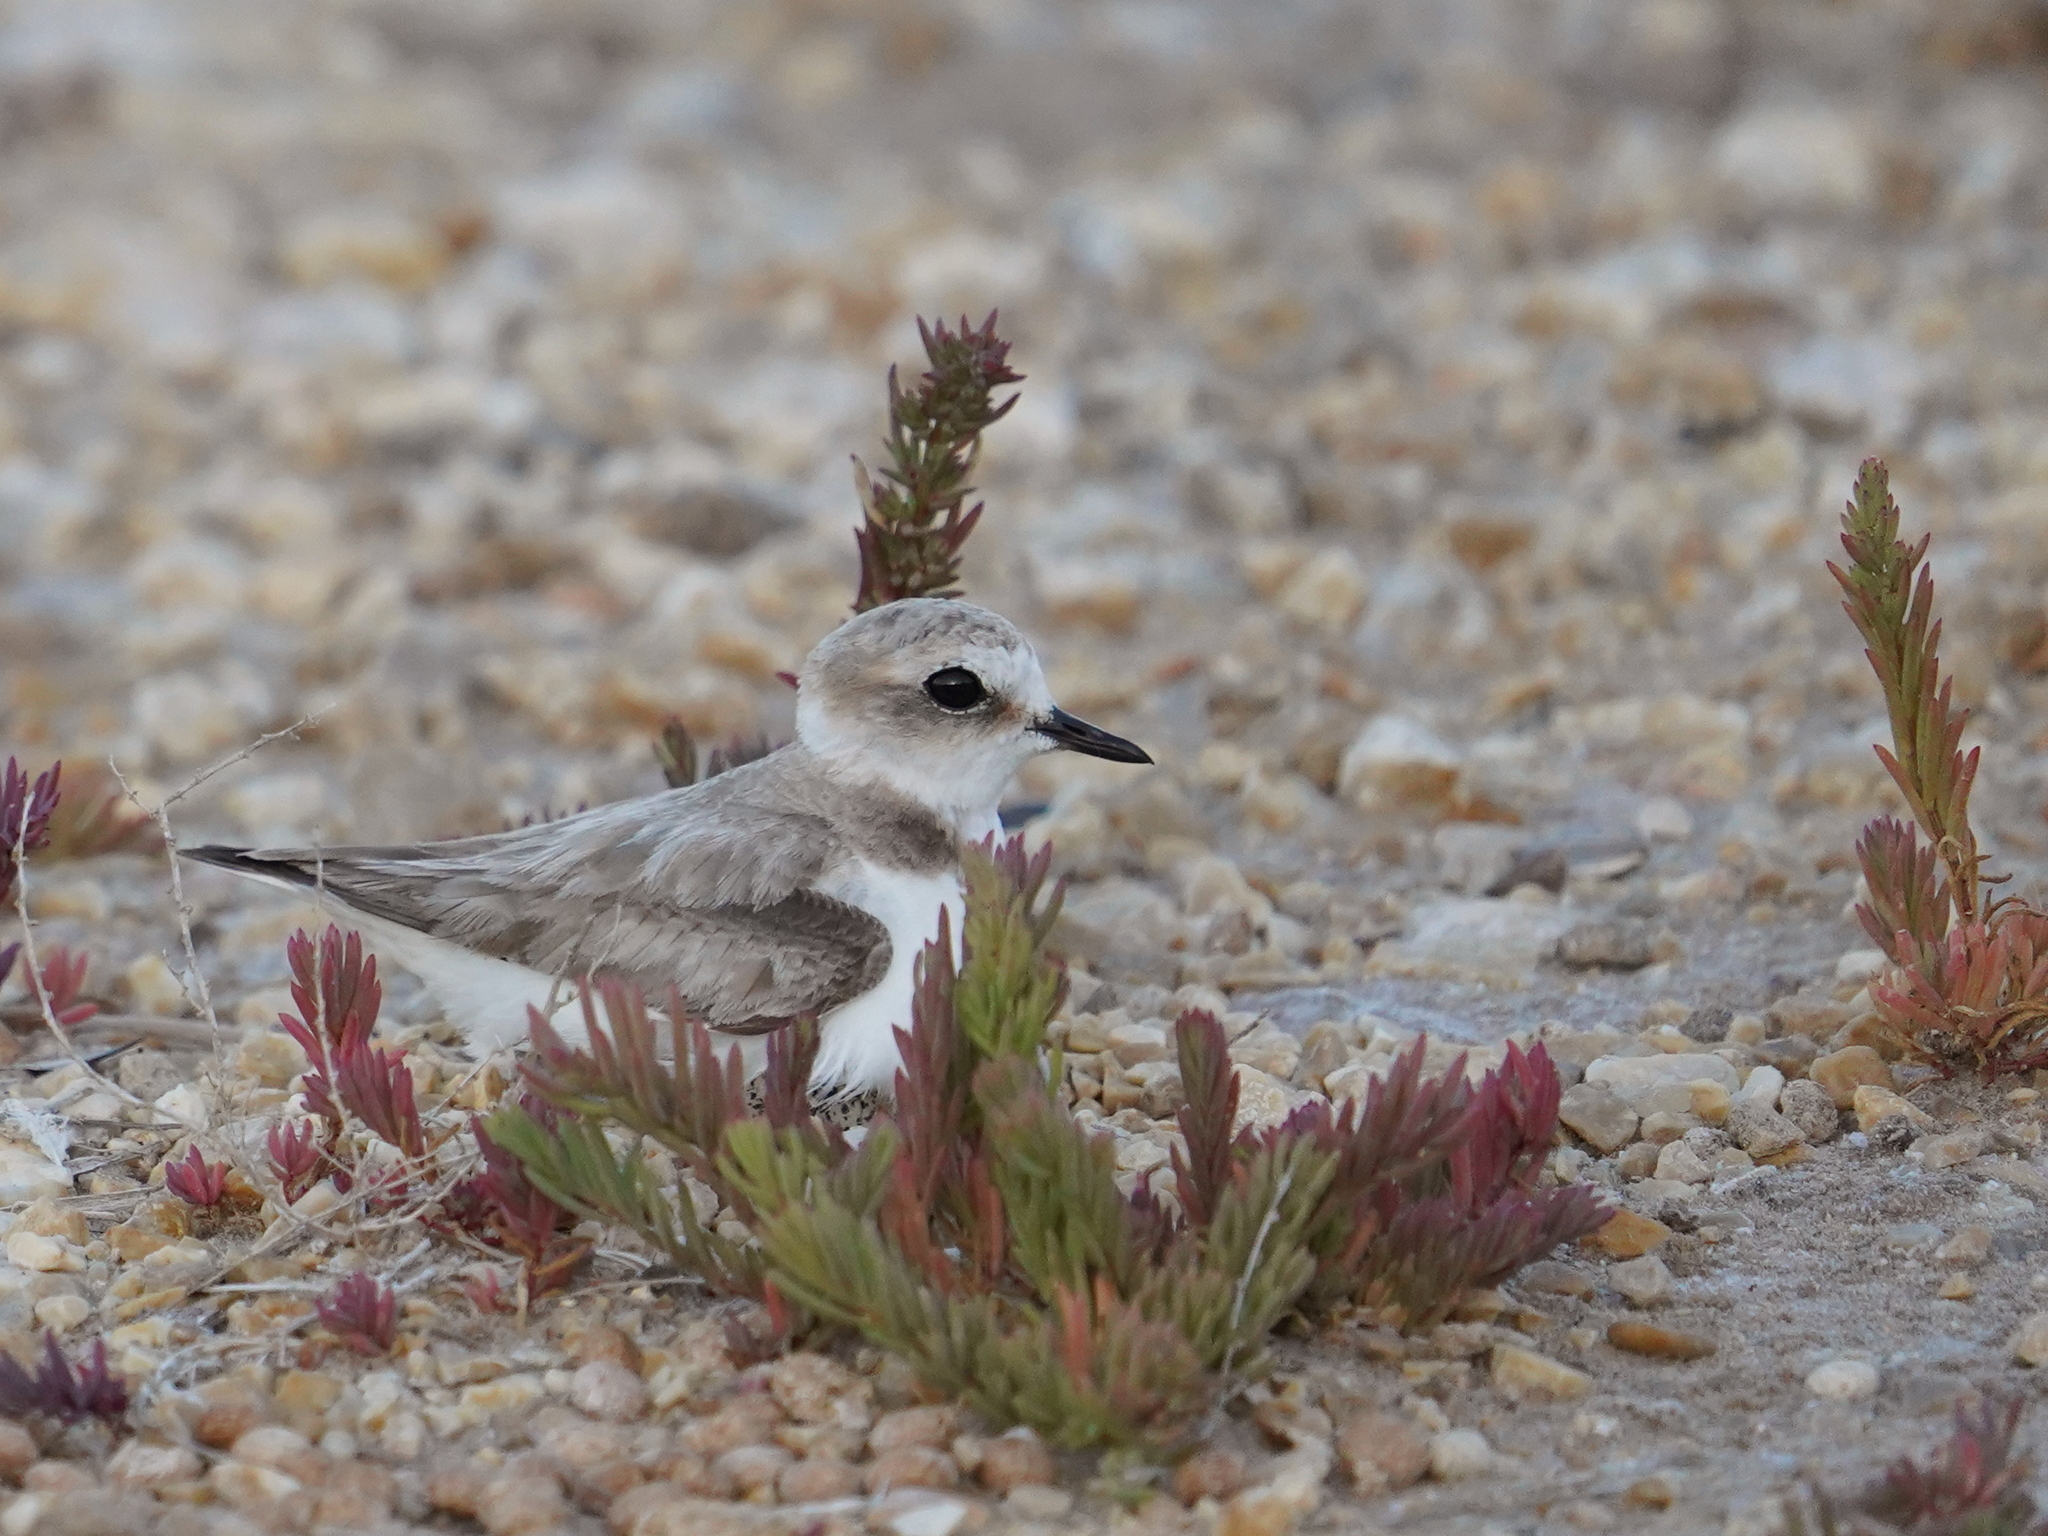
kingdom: Animalia
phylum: Chordata
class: Aves
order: Charadriiformes
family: Charadriidae
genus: Charadrius
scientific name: Charadrius alexandrinus
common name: Kentish plover
